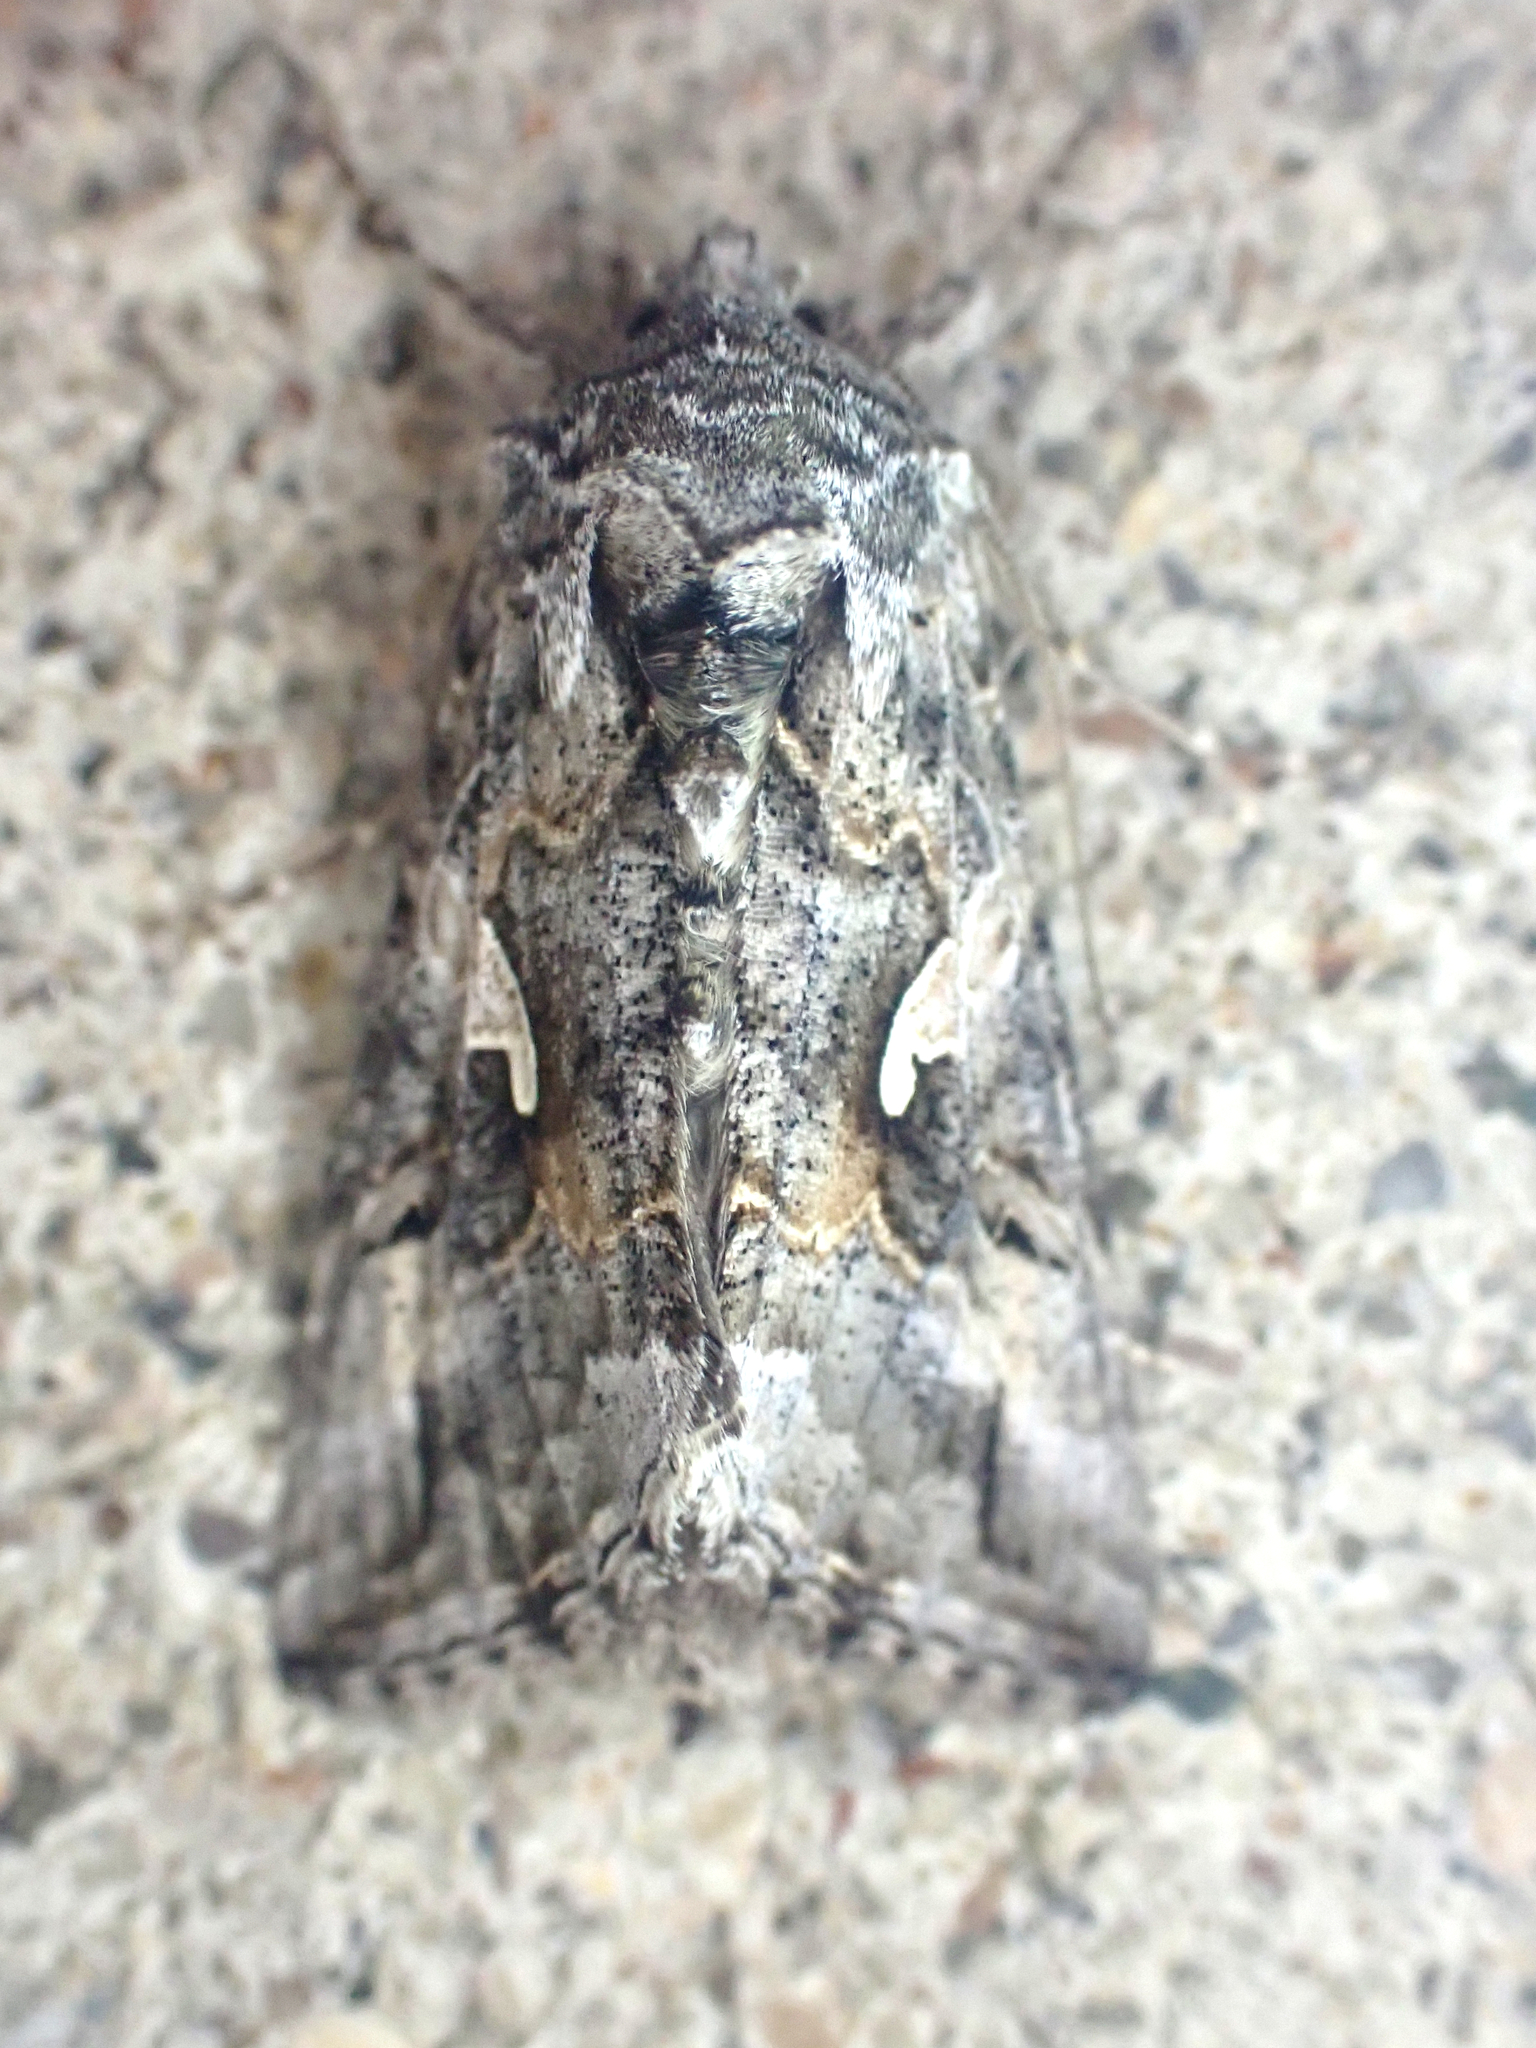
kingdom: Animalia
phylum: Arthropoda
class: Insecta
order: Lepidoptera
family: Noctuidae
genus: Autographa
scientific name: Autographa californica
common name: Alfalfa looper
